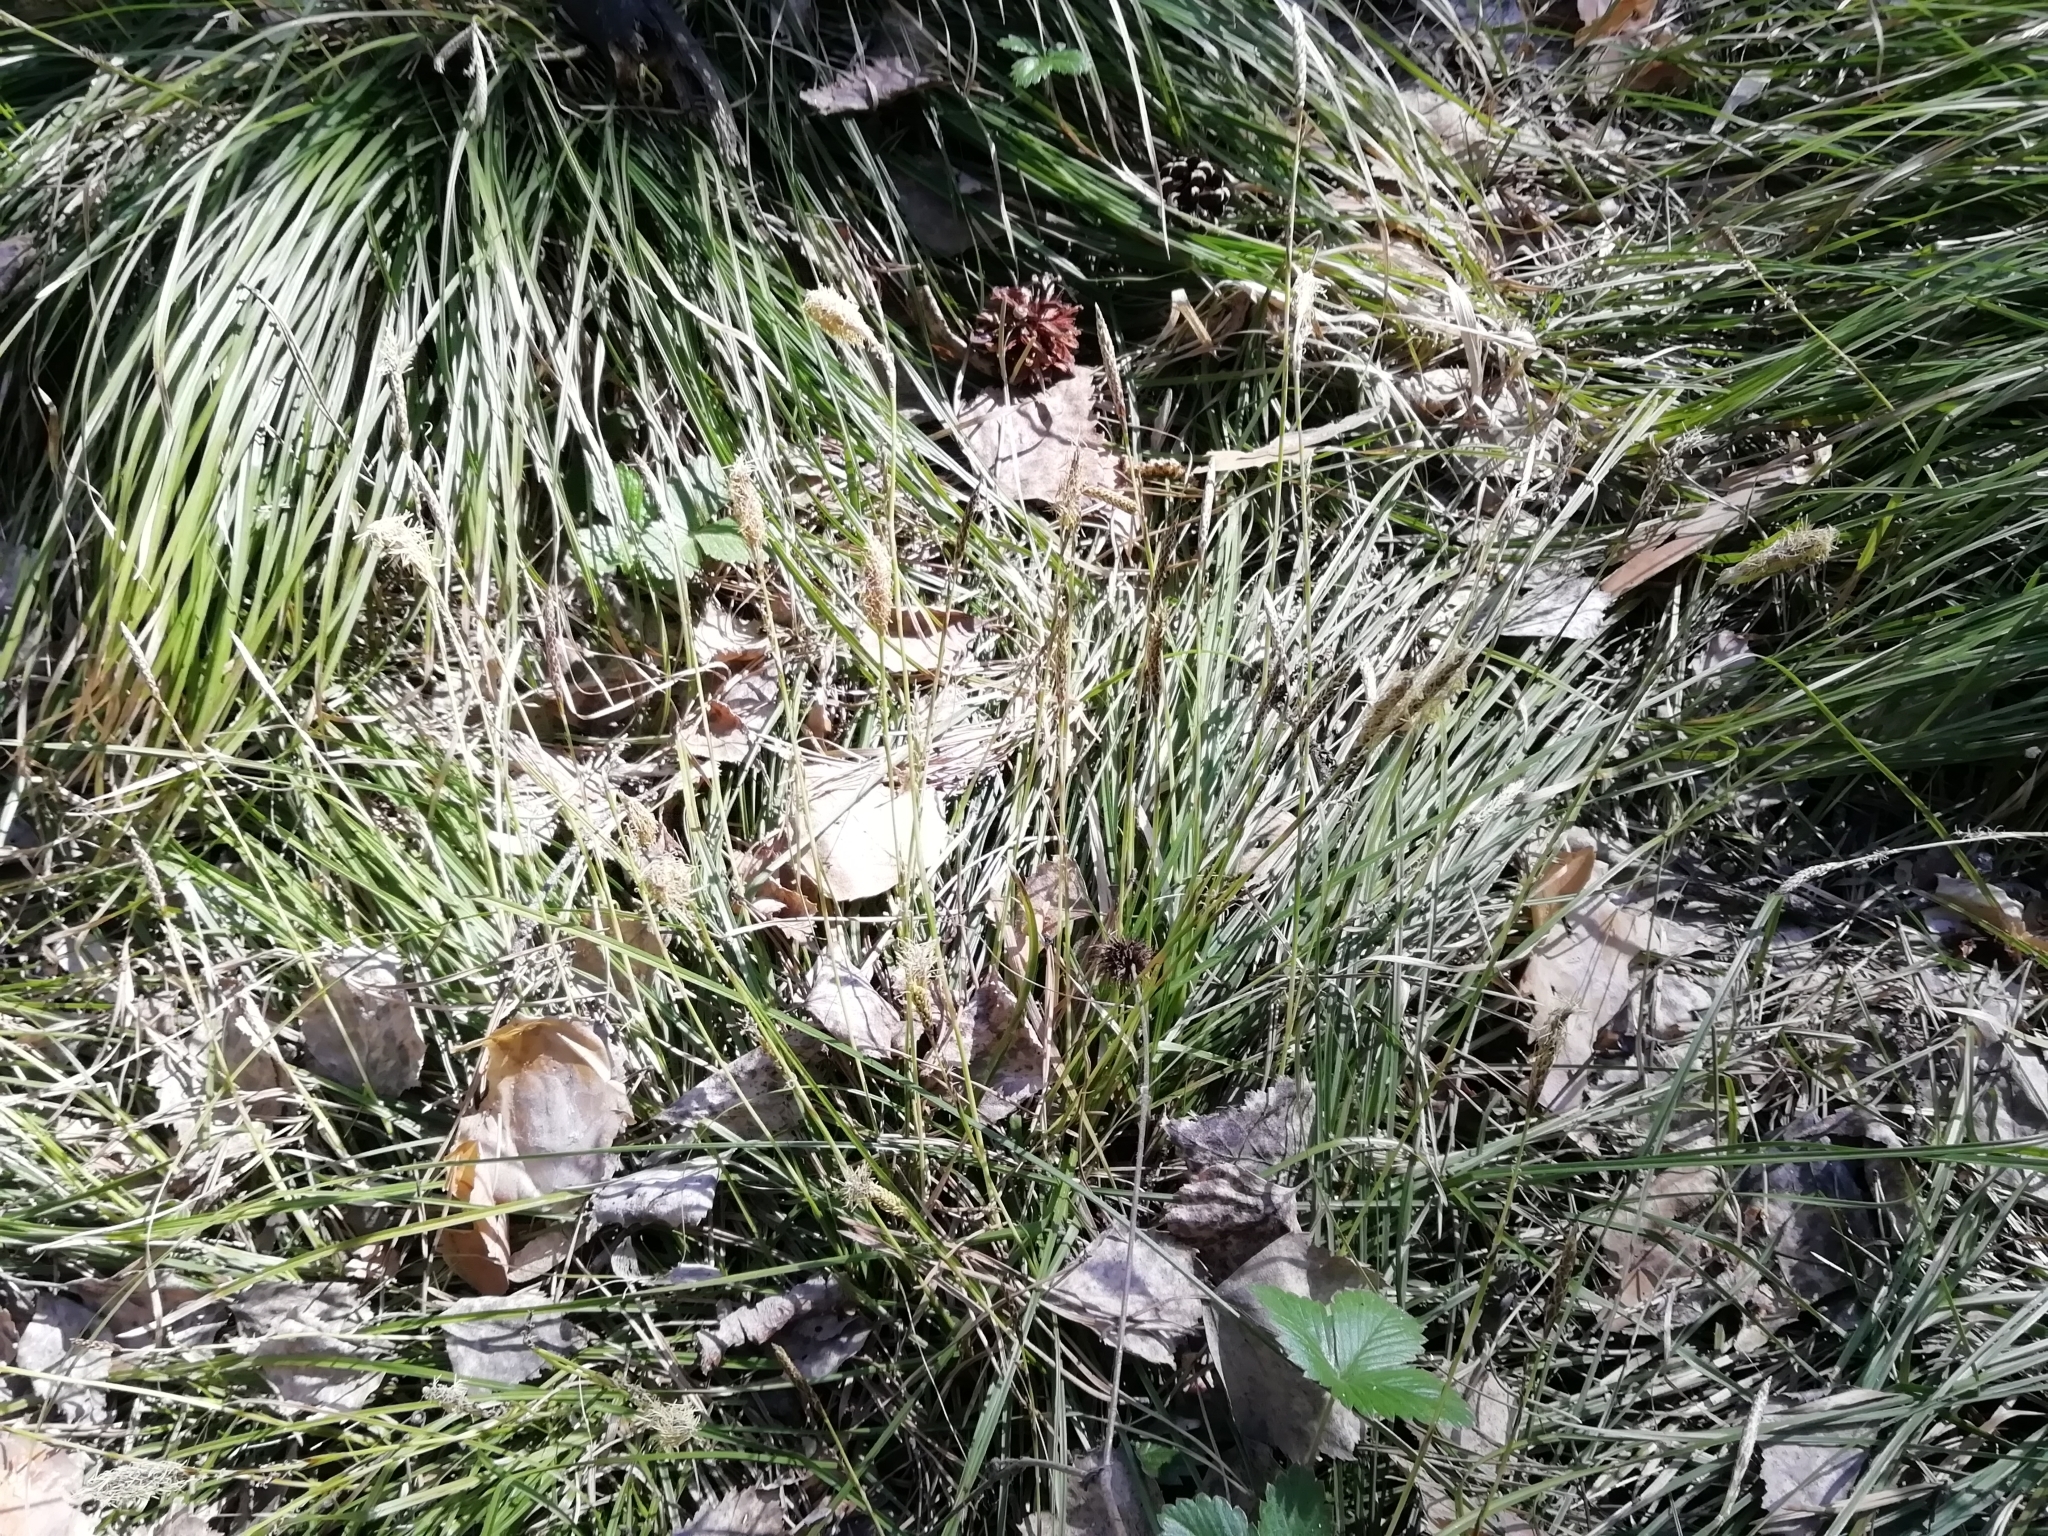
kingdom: Plantae
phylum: Tracheophyta
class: Liliopsida
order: Poales
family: Cyperaceae
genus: Carex
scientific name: Carex pediformis
